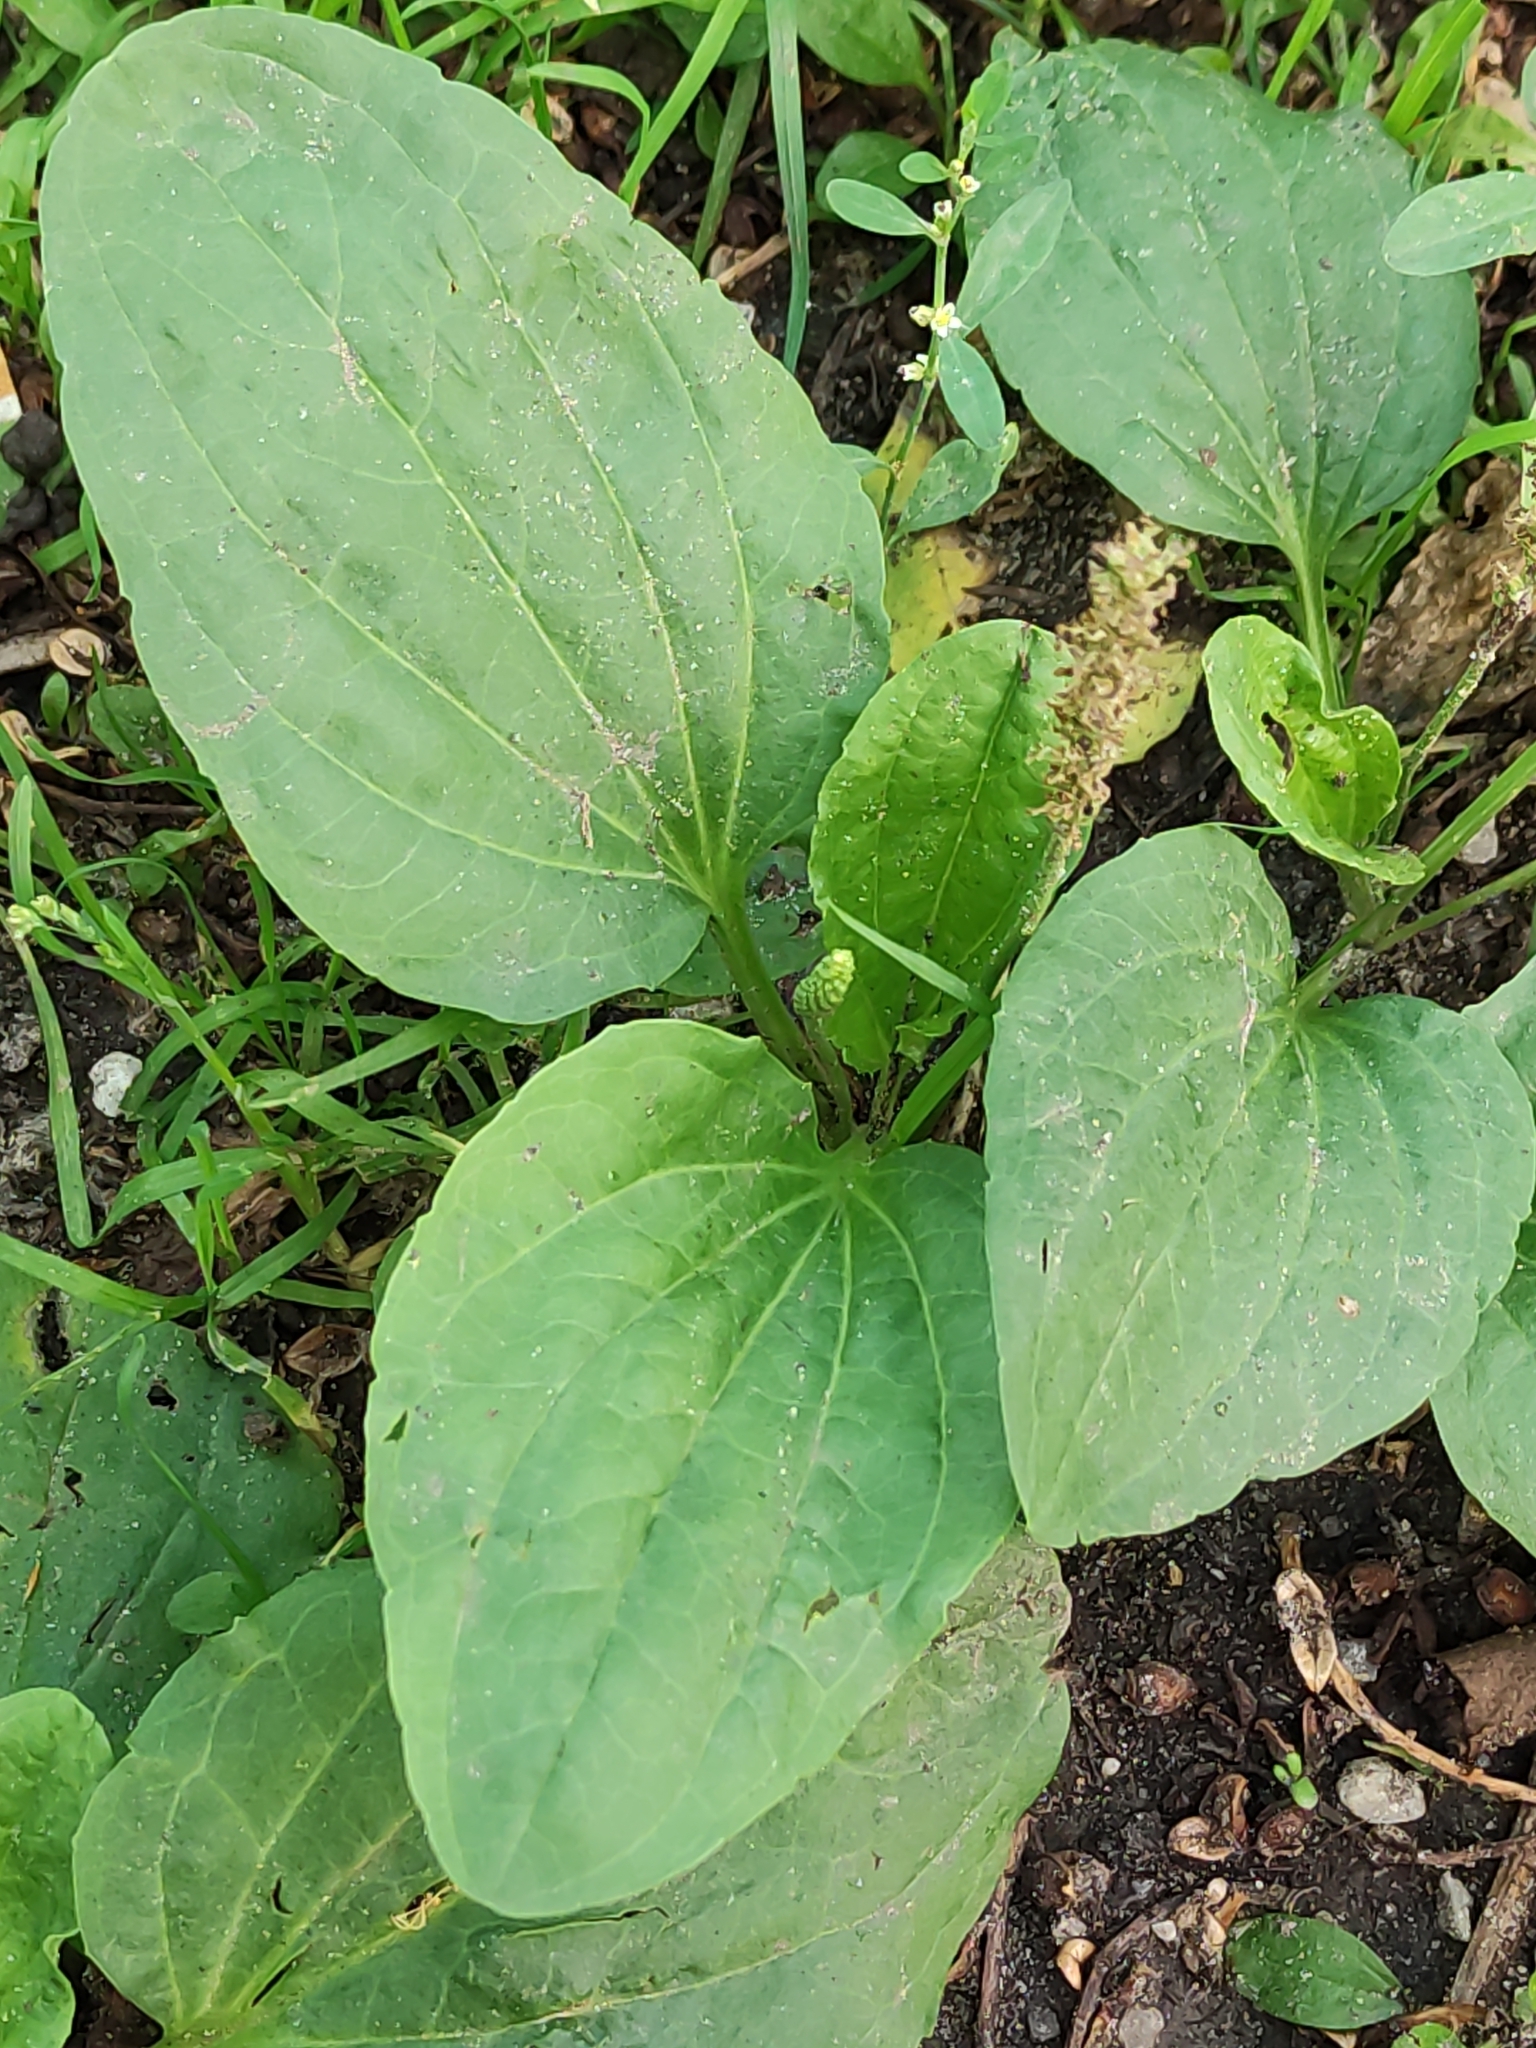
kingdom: Plantae
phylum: Tracheophyta
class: Magnoliopsida
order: Lamiales
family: Plantaginaceae
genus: Plantago
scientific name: Plantago major
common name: Common plantain
